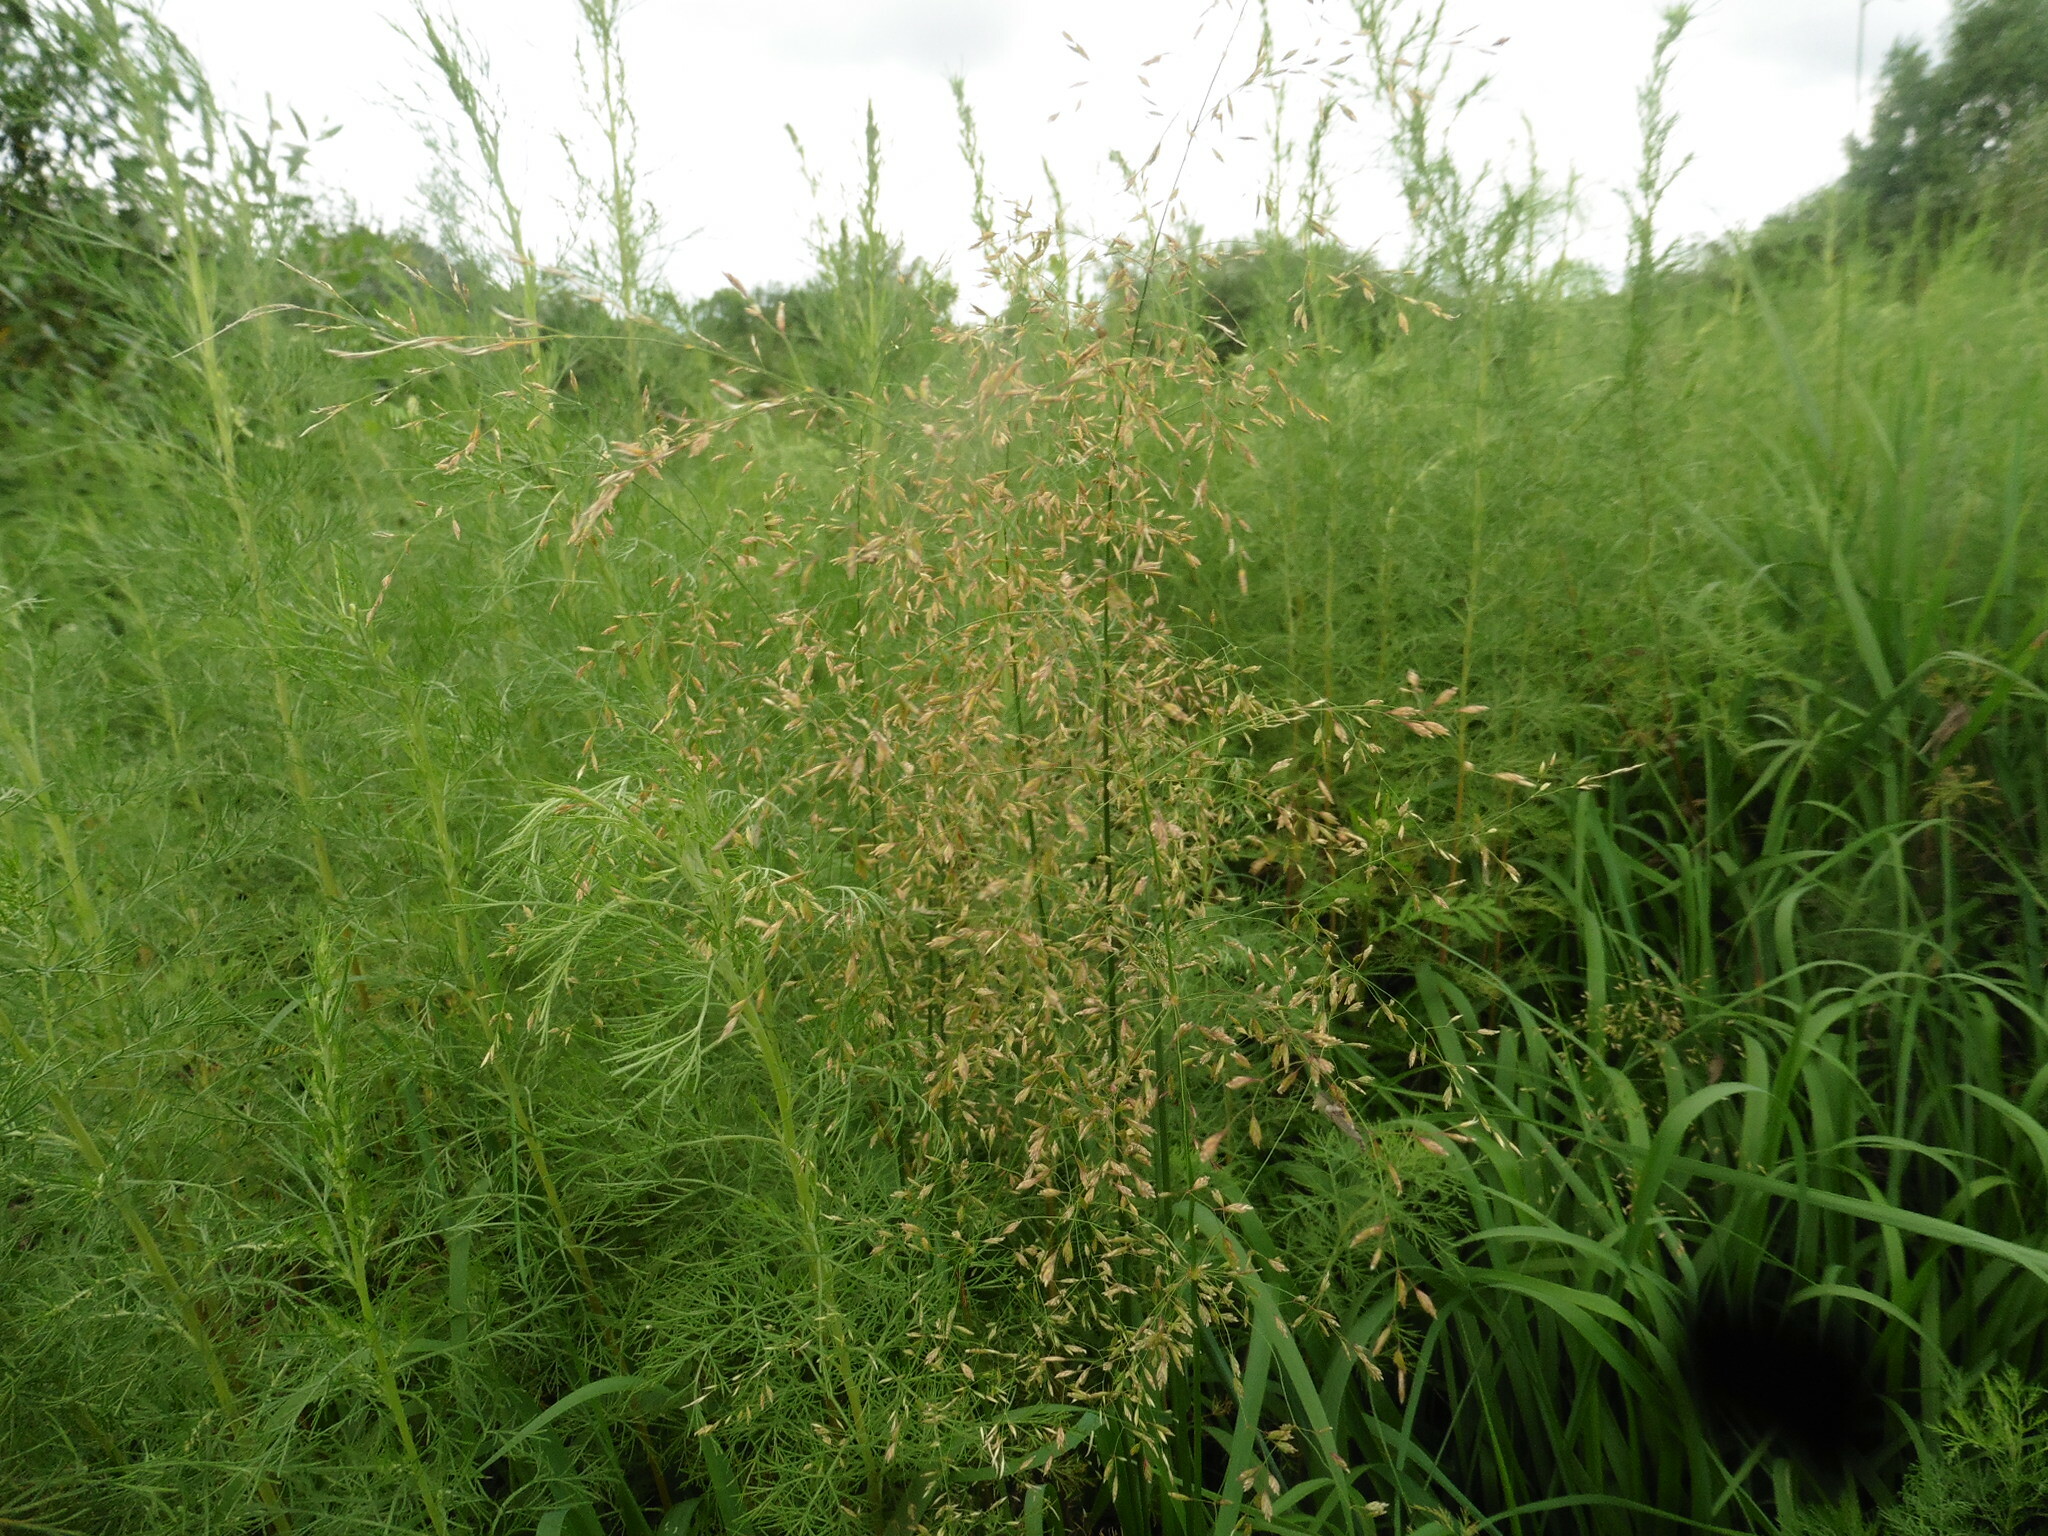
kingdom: Plantae
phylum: Tracheophyta
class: Liliopsida
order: Poales
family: Poaceae
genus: Poa
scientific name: Poa palustris
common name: Swamp meadow-grass
